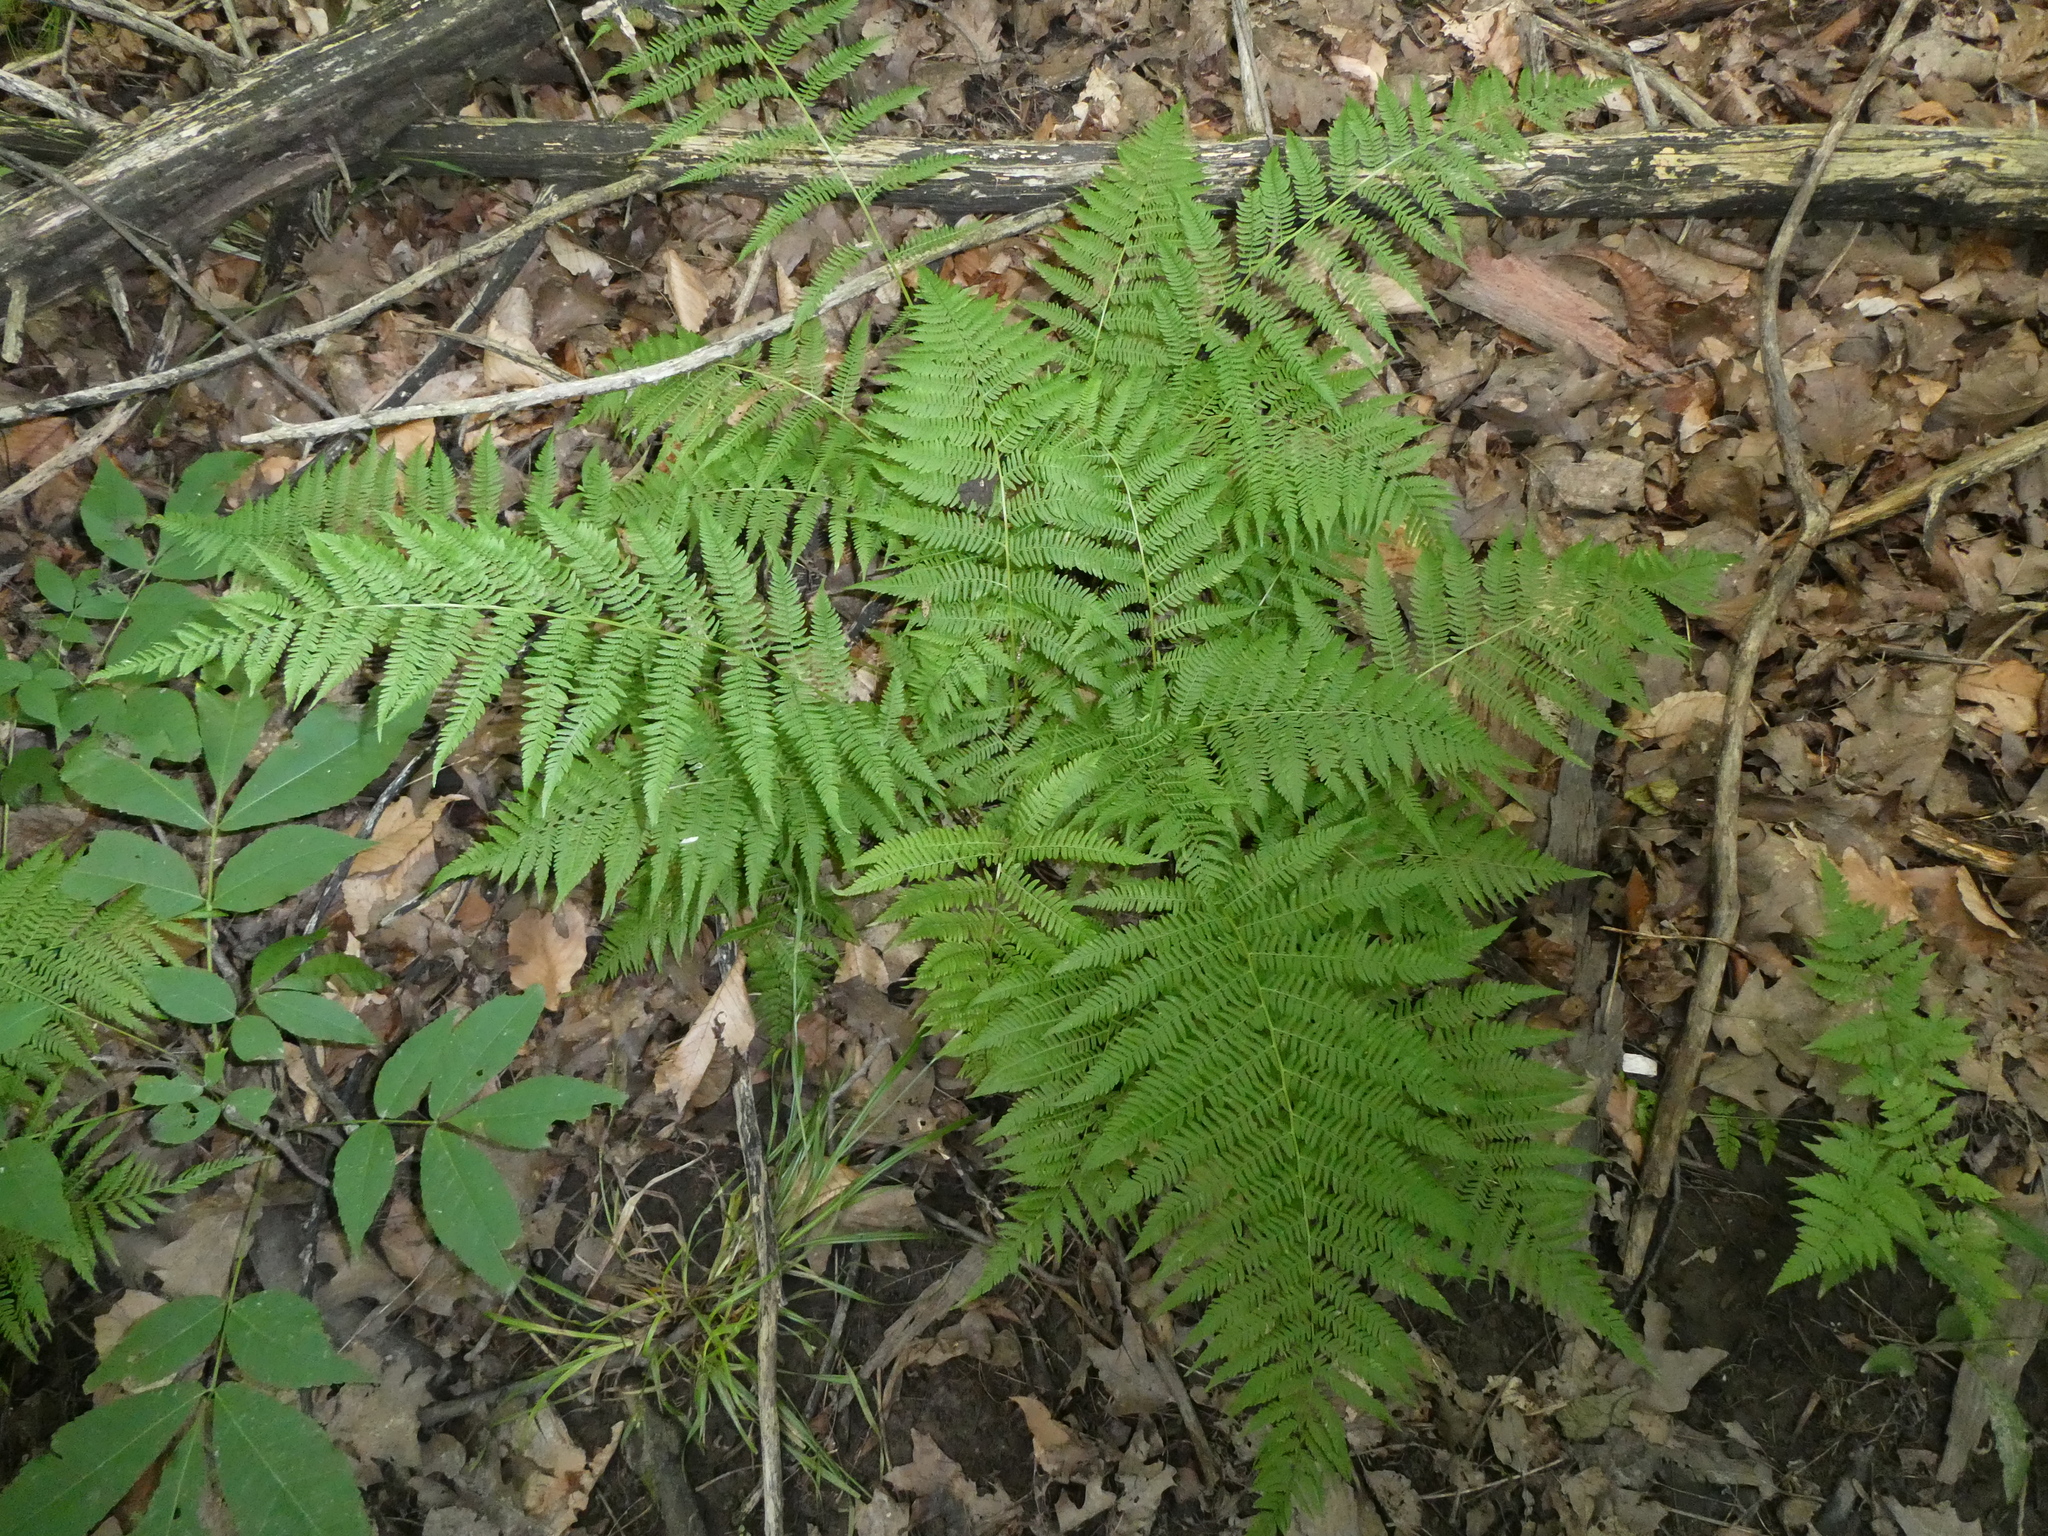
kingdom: Plantae
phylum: Tracheophyta
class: Polypodiopsida
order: Polypodiales
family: Athyriaceae
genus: Athyrium
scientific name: Athyrium angustum
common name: Northern lady fern
